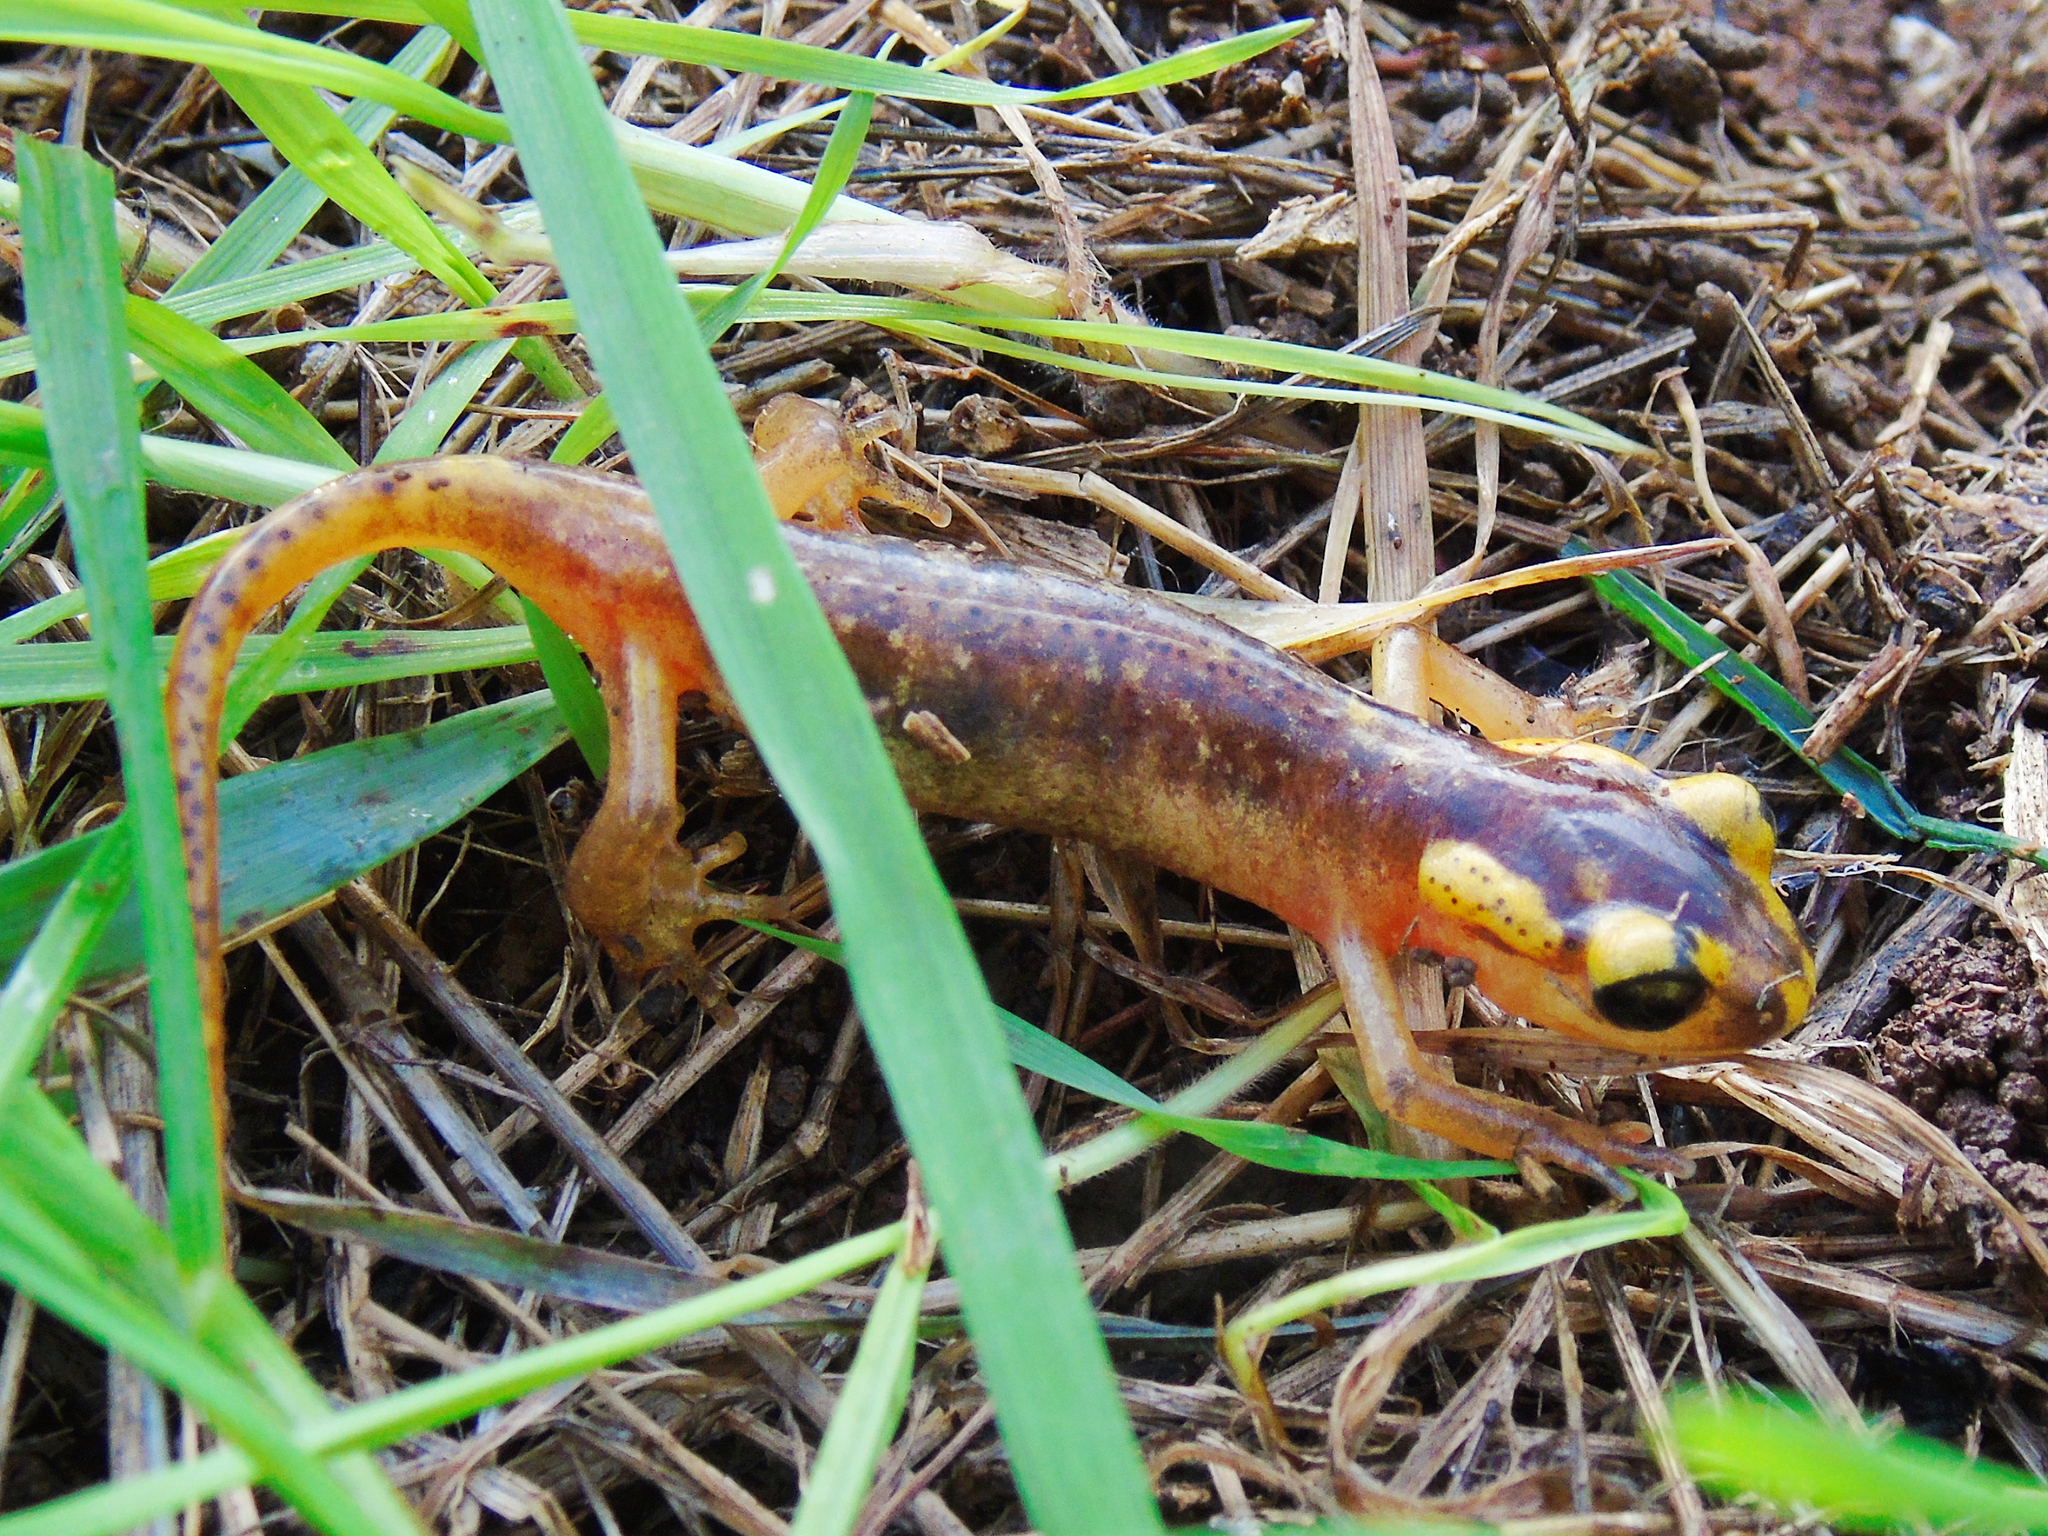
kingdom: Animalia
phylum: Chordata
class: Amphibia
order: Caudata
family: Salamandridae
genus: Lyciasalamandra
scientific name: Lyciasalamandra antalyana
